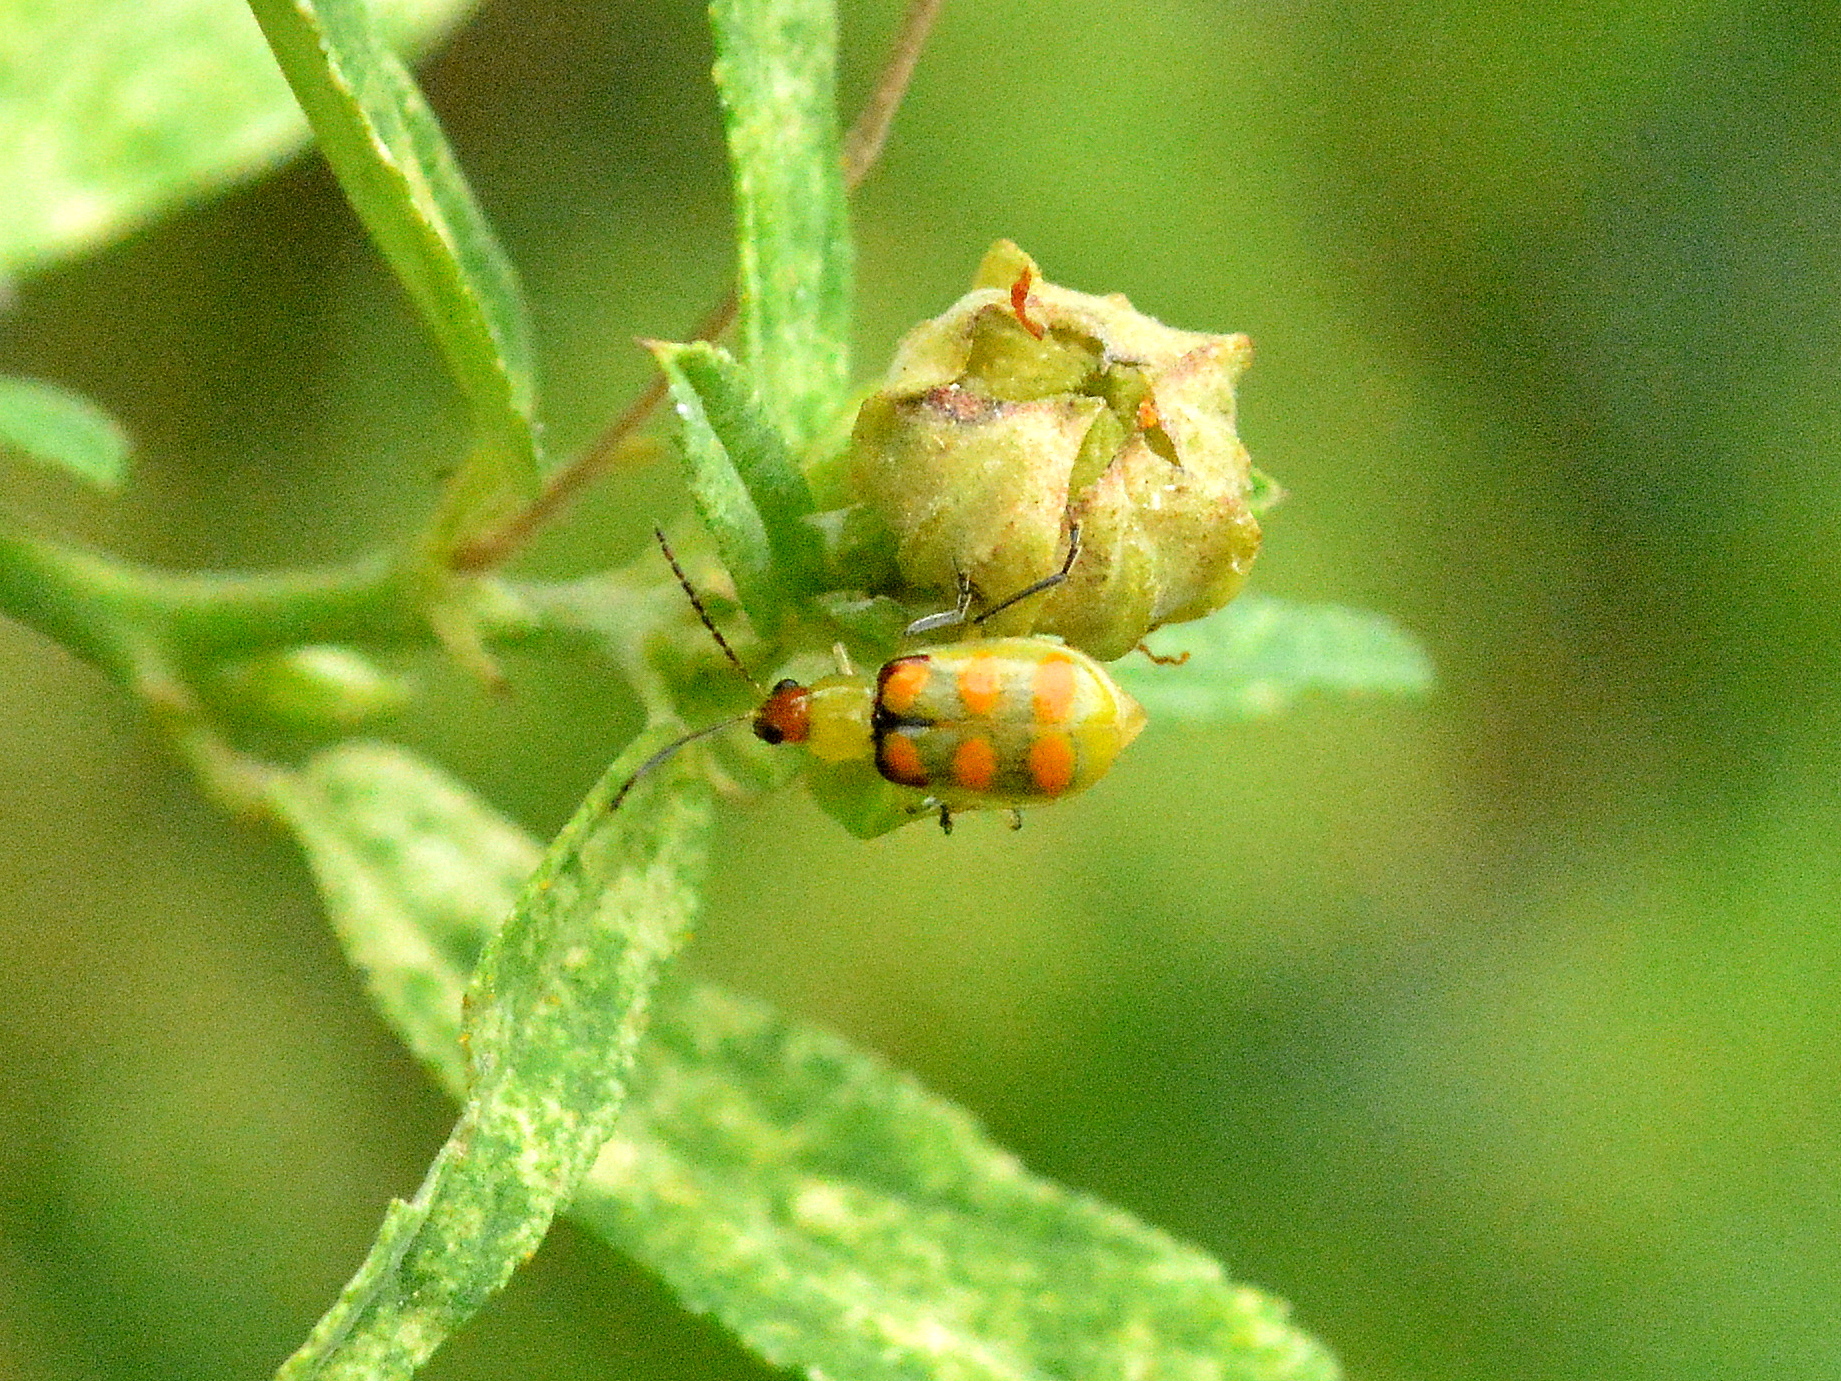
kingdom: Animalia
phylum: Arthropoda
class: Insecta
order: Coleoptera
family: Chrysomelidae
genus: Diabrotica
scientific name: Diabrotica speciosa
